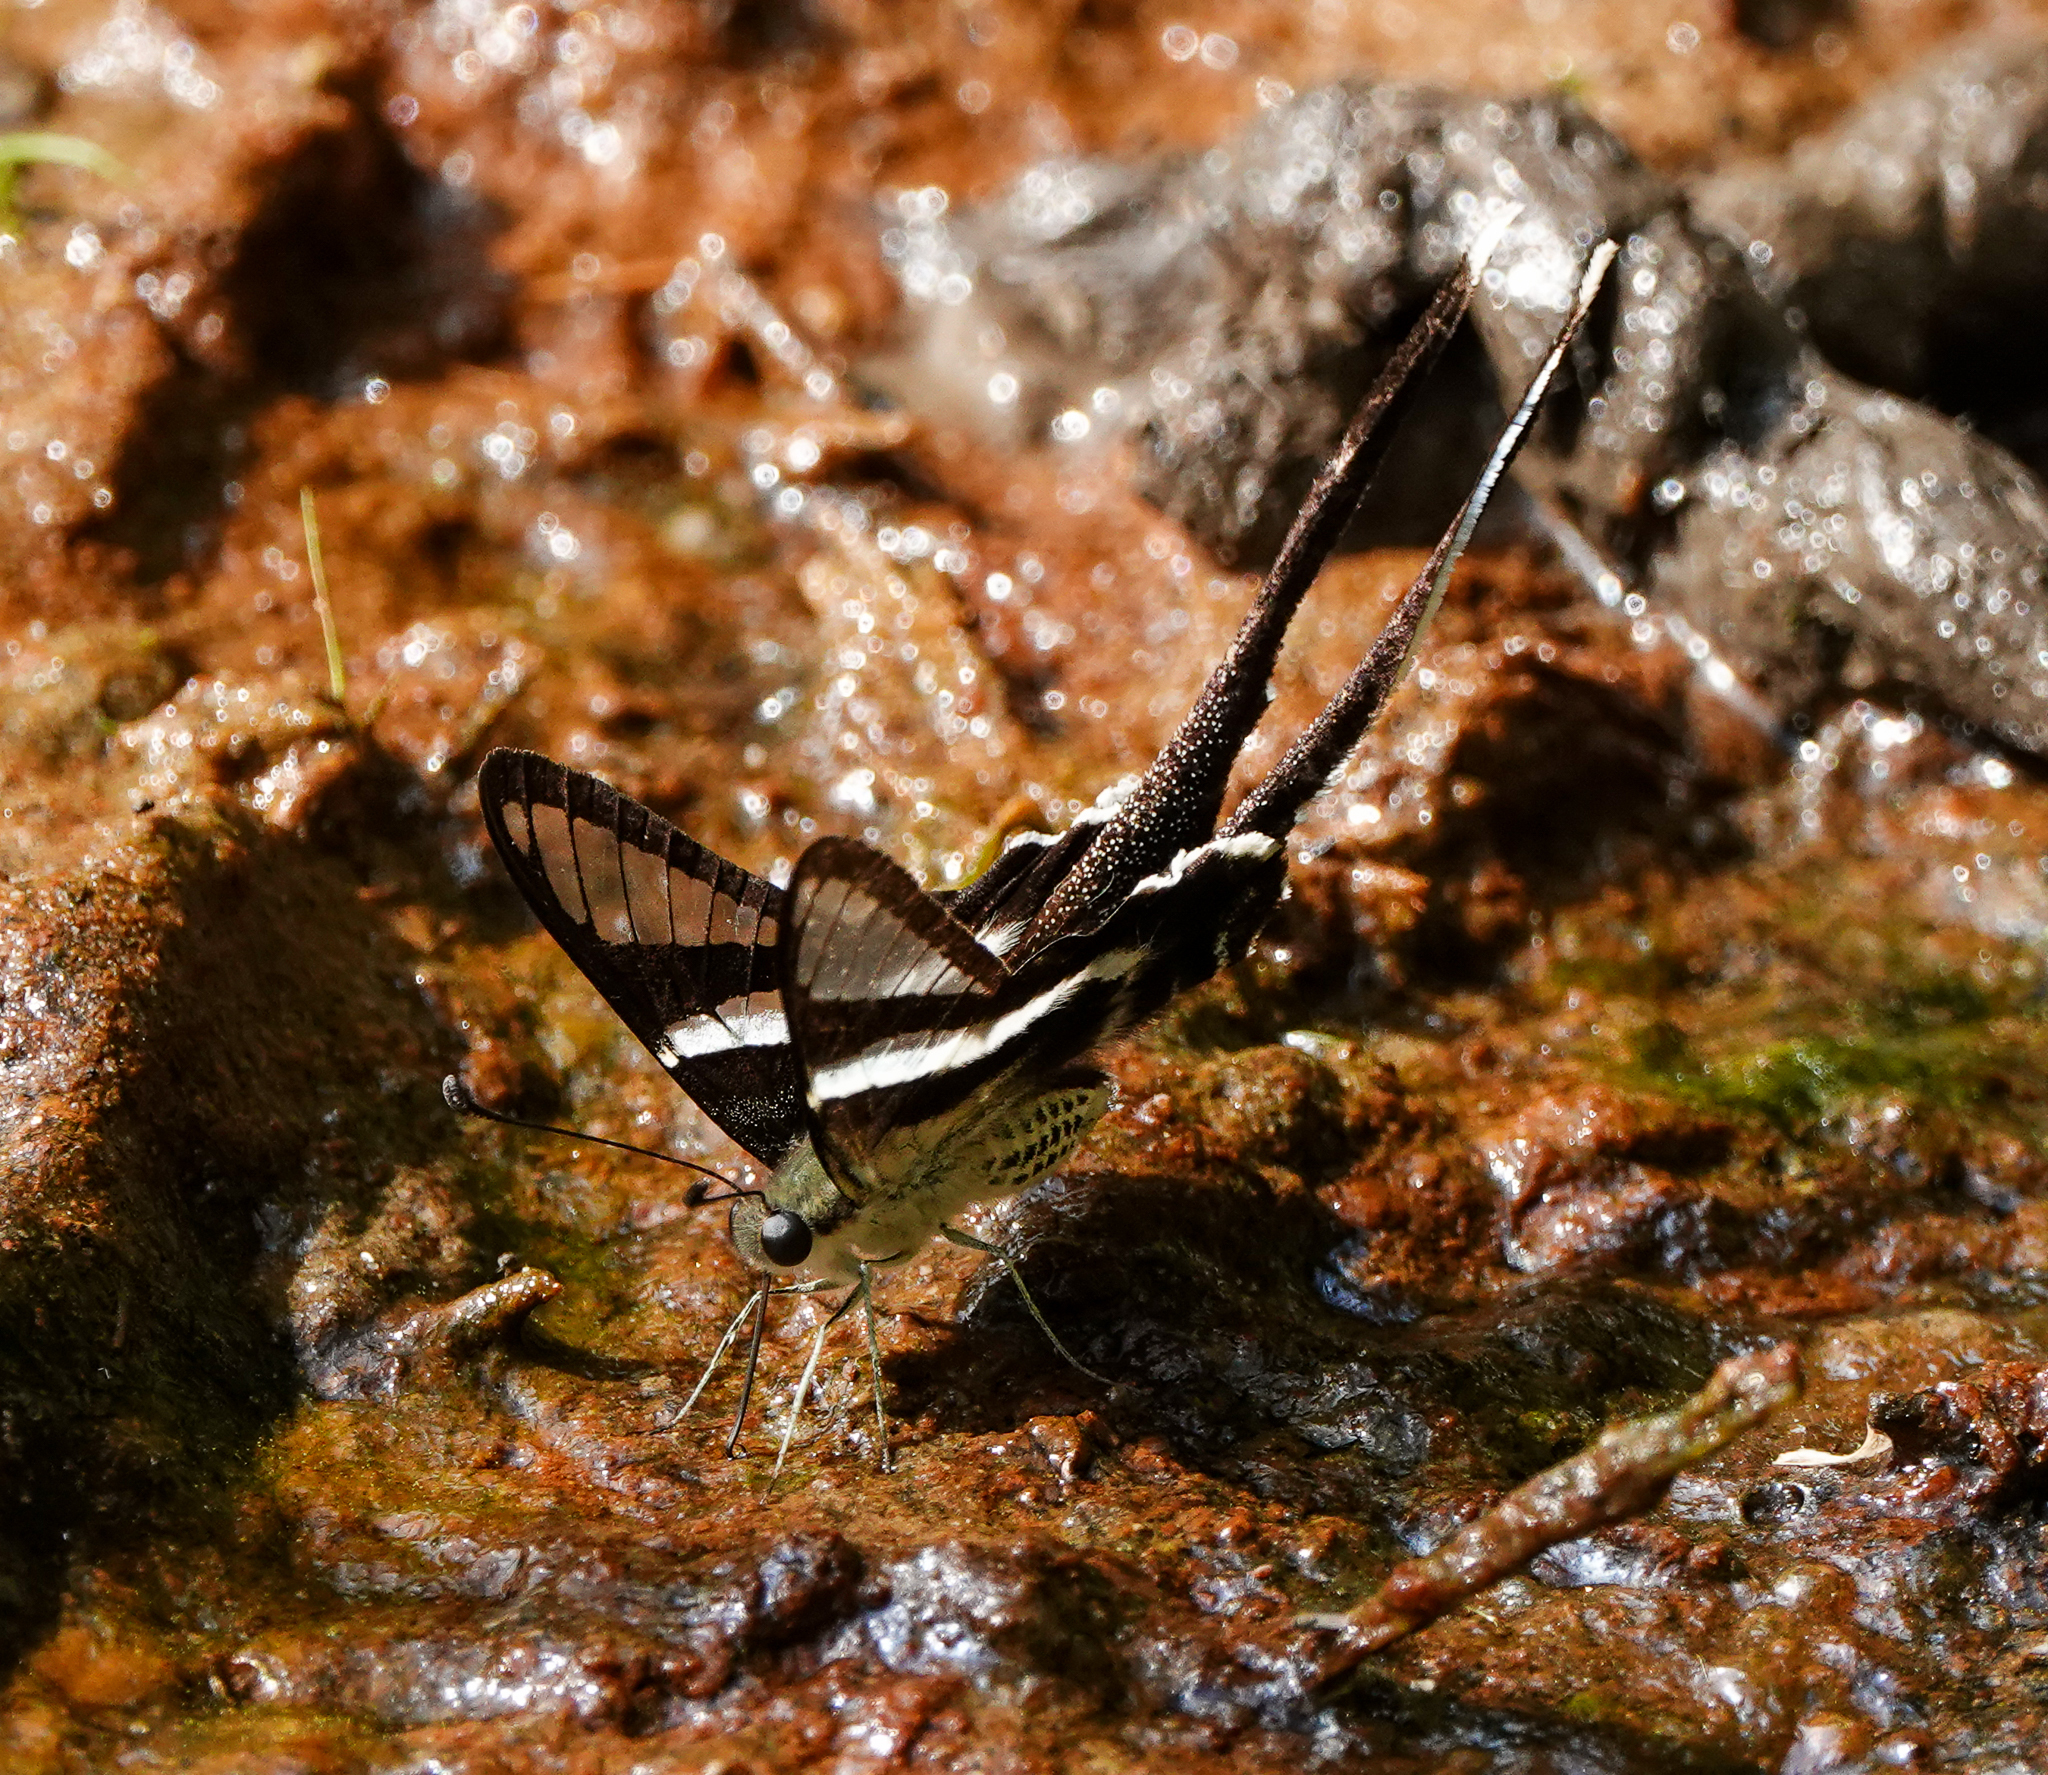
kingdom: Animalia
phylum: Arthropoda
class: Insecta
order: Lepidoptera
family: Papilionidae
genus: Lamproptera
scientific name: Lamproptera curius
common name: White dragontail
